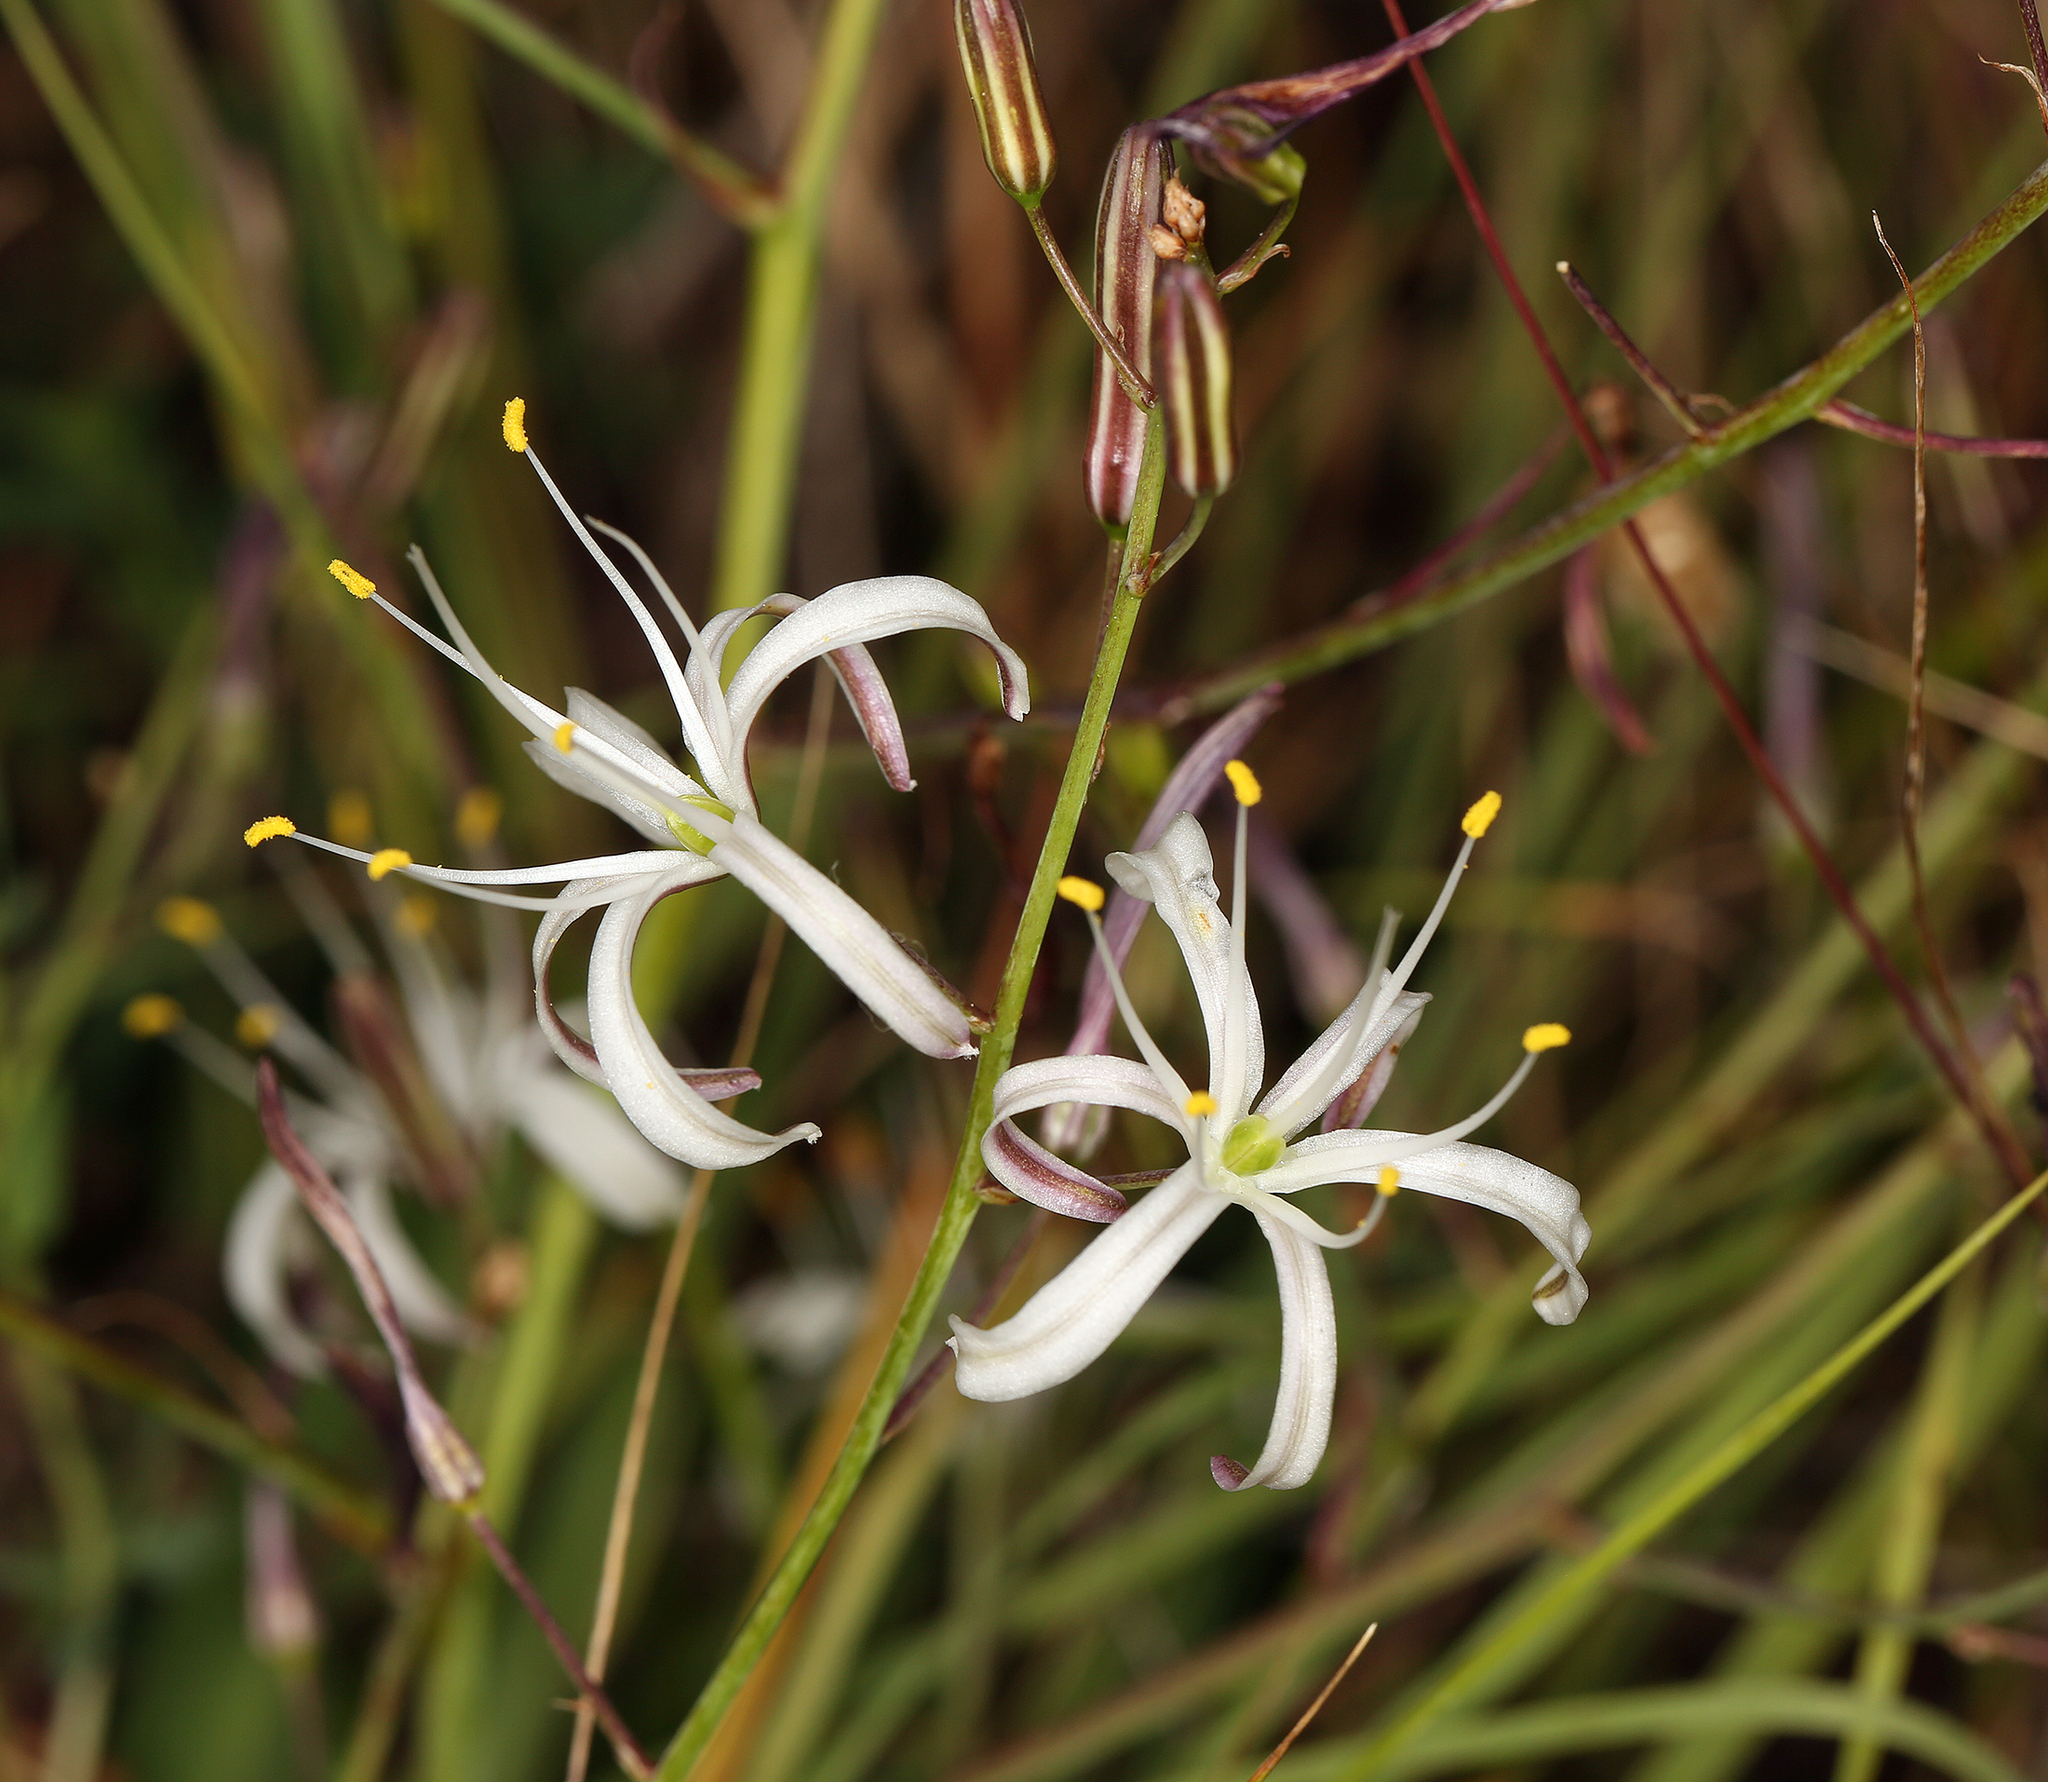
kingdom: Plantae
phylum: Tracheophyta
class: Liliopsida
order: Asparagales
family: Asparagaceae
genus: Chlorogalum
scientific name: Chlorogalum pomeridianum
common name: Amole
